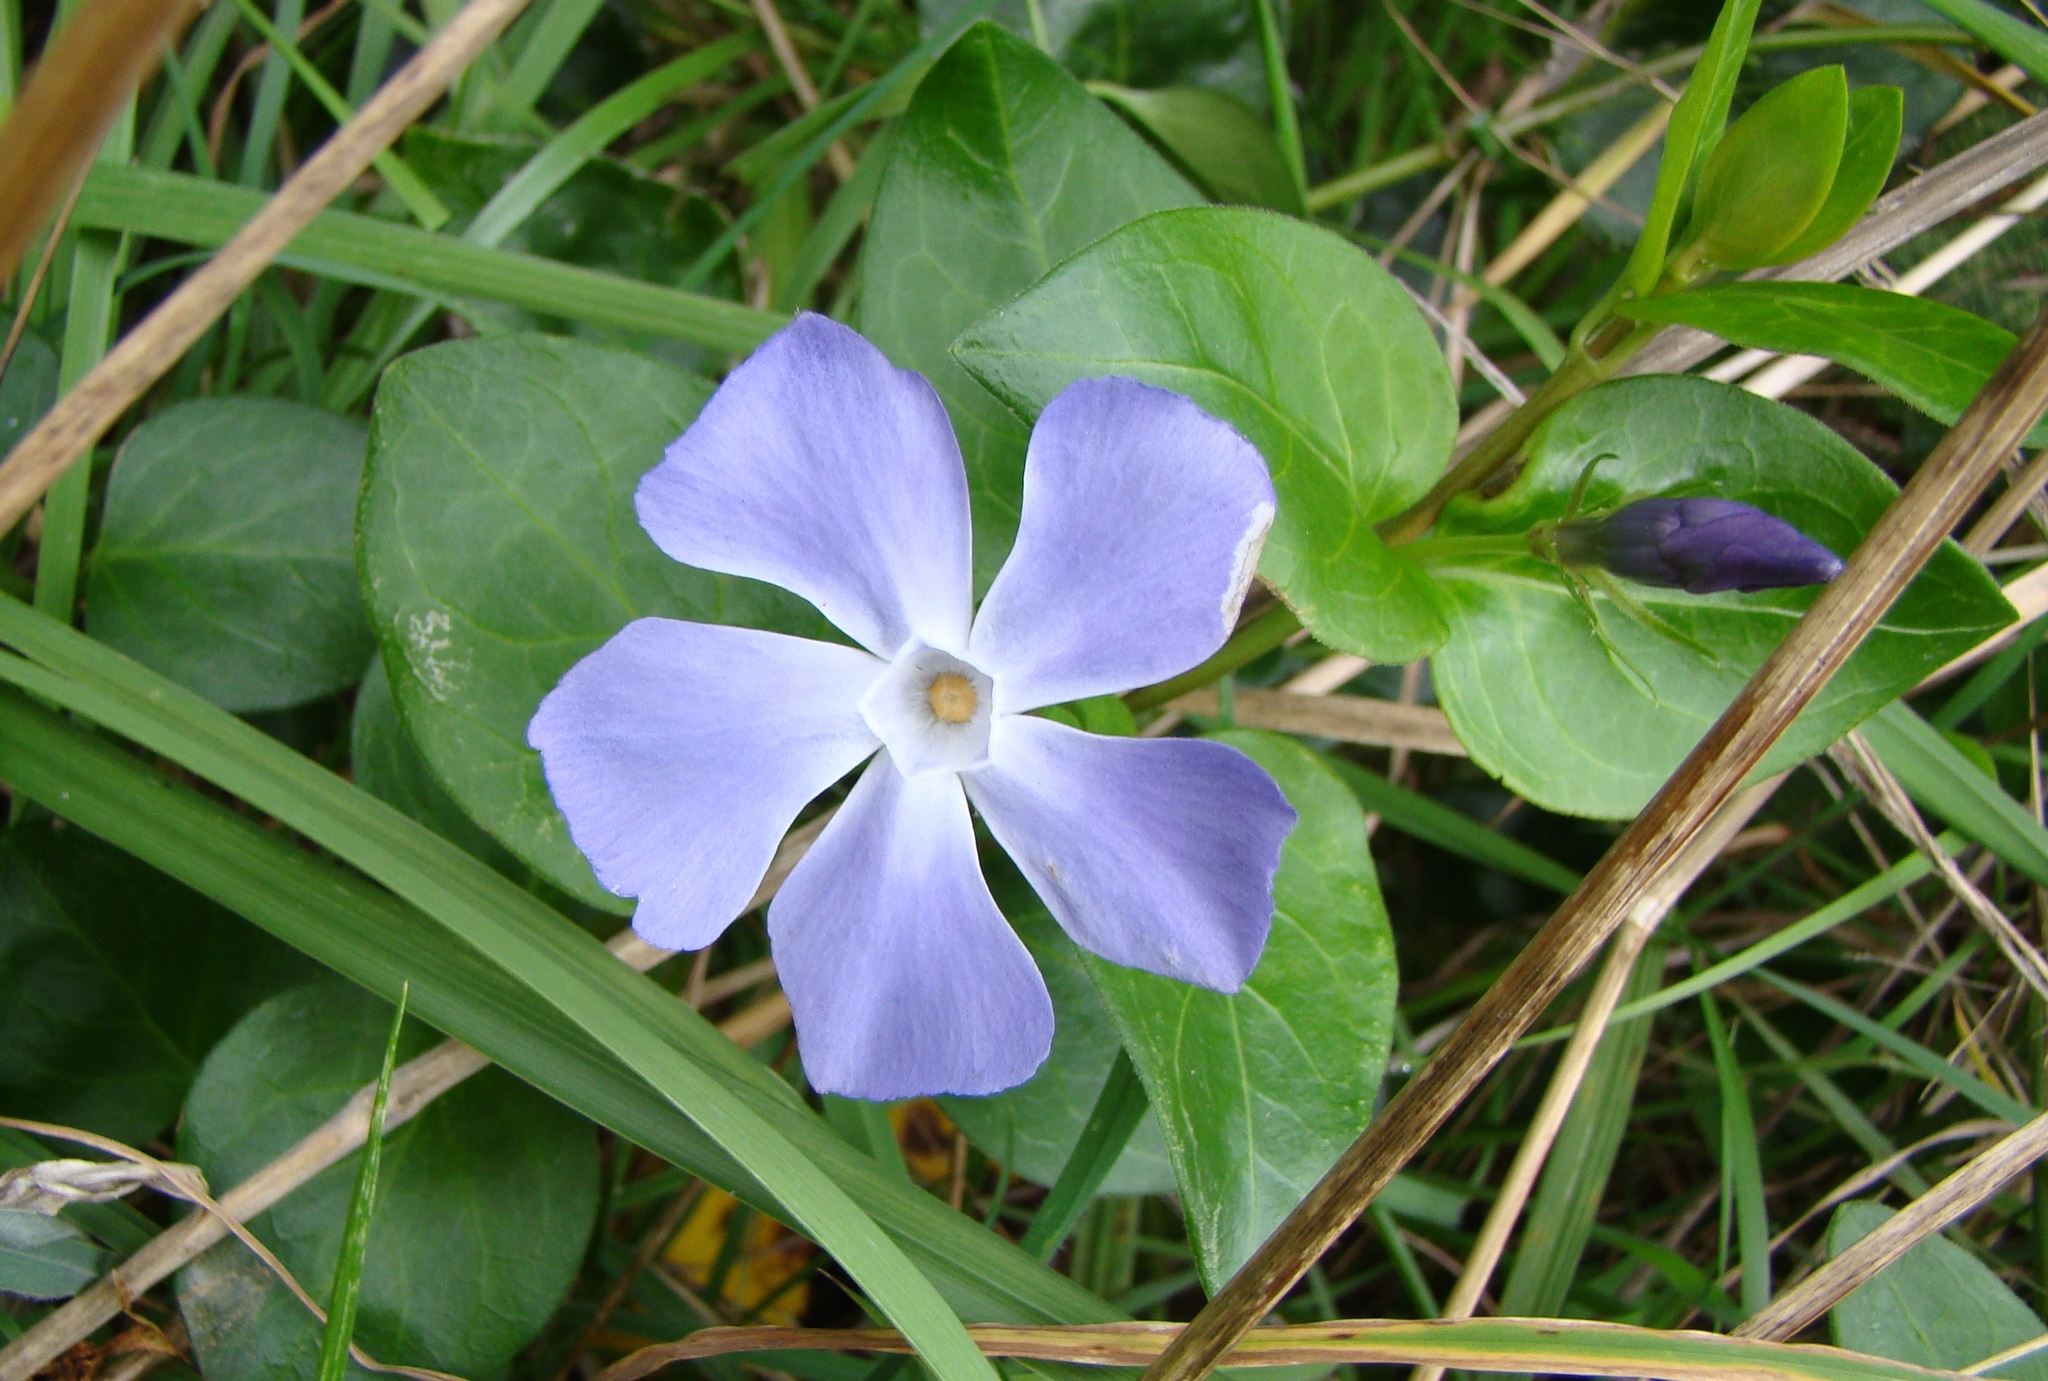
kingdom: Plantae
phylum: Tracheophyta
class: Magnoliopsida
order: Gentianales
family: Apocynaceae
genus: Vinca
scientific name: Vinca major
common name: Greater periwinkle
